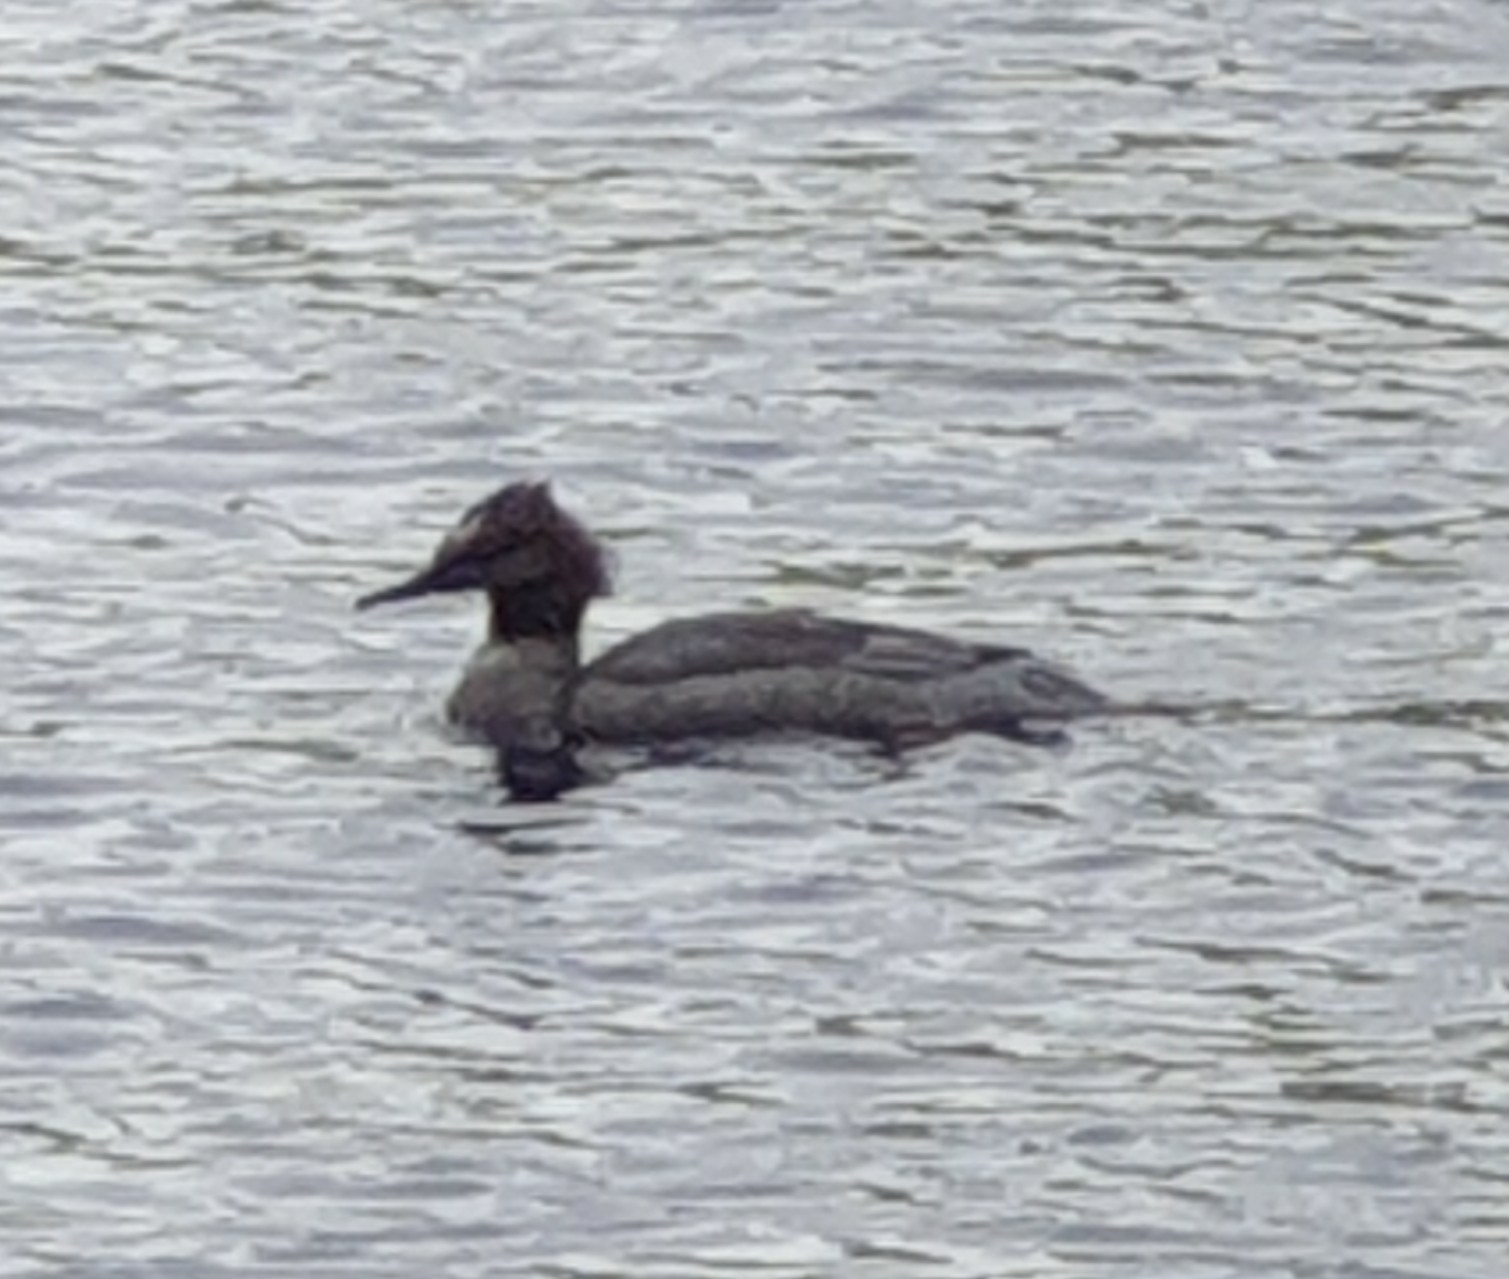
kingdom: Animalia
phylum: Chordata
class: Aves
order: Anseriformes
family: Anatidae
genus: Mergus
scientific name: Mergus merganser
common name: Common merganser
